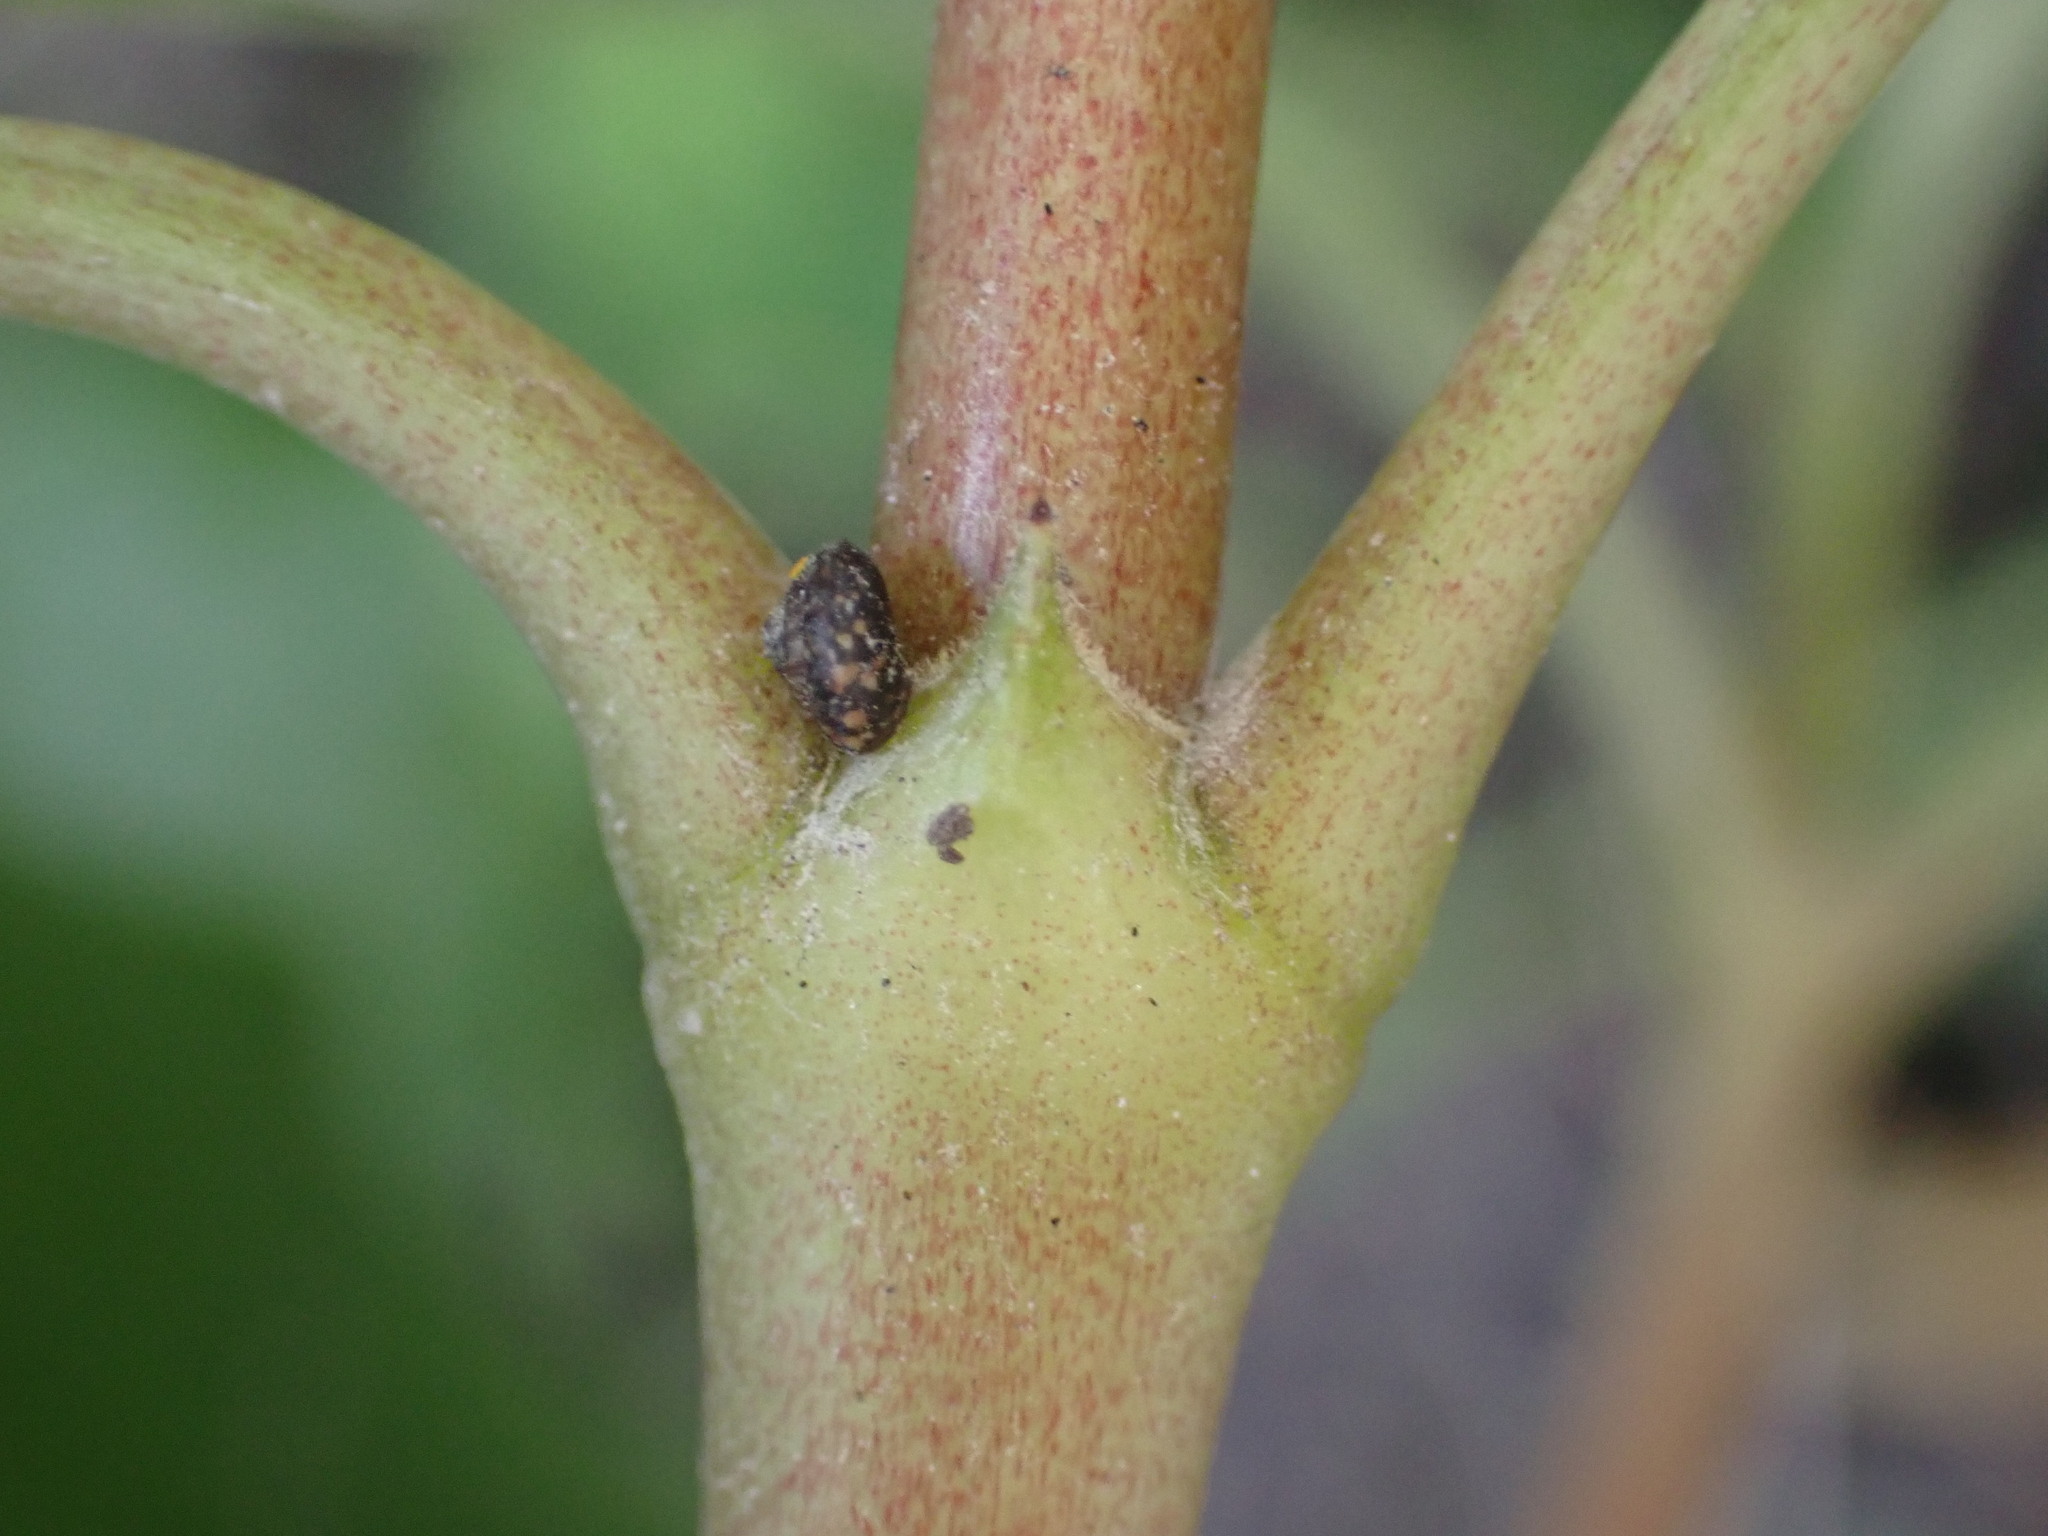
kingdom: Plantae
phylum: Tracheophyta
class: Magnoliopsida
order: Gentianales
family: Rubiaceae
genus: Coprosma
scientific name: Coprosma lucida
